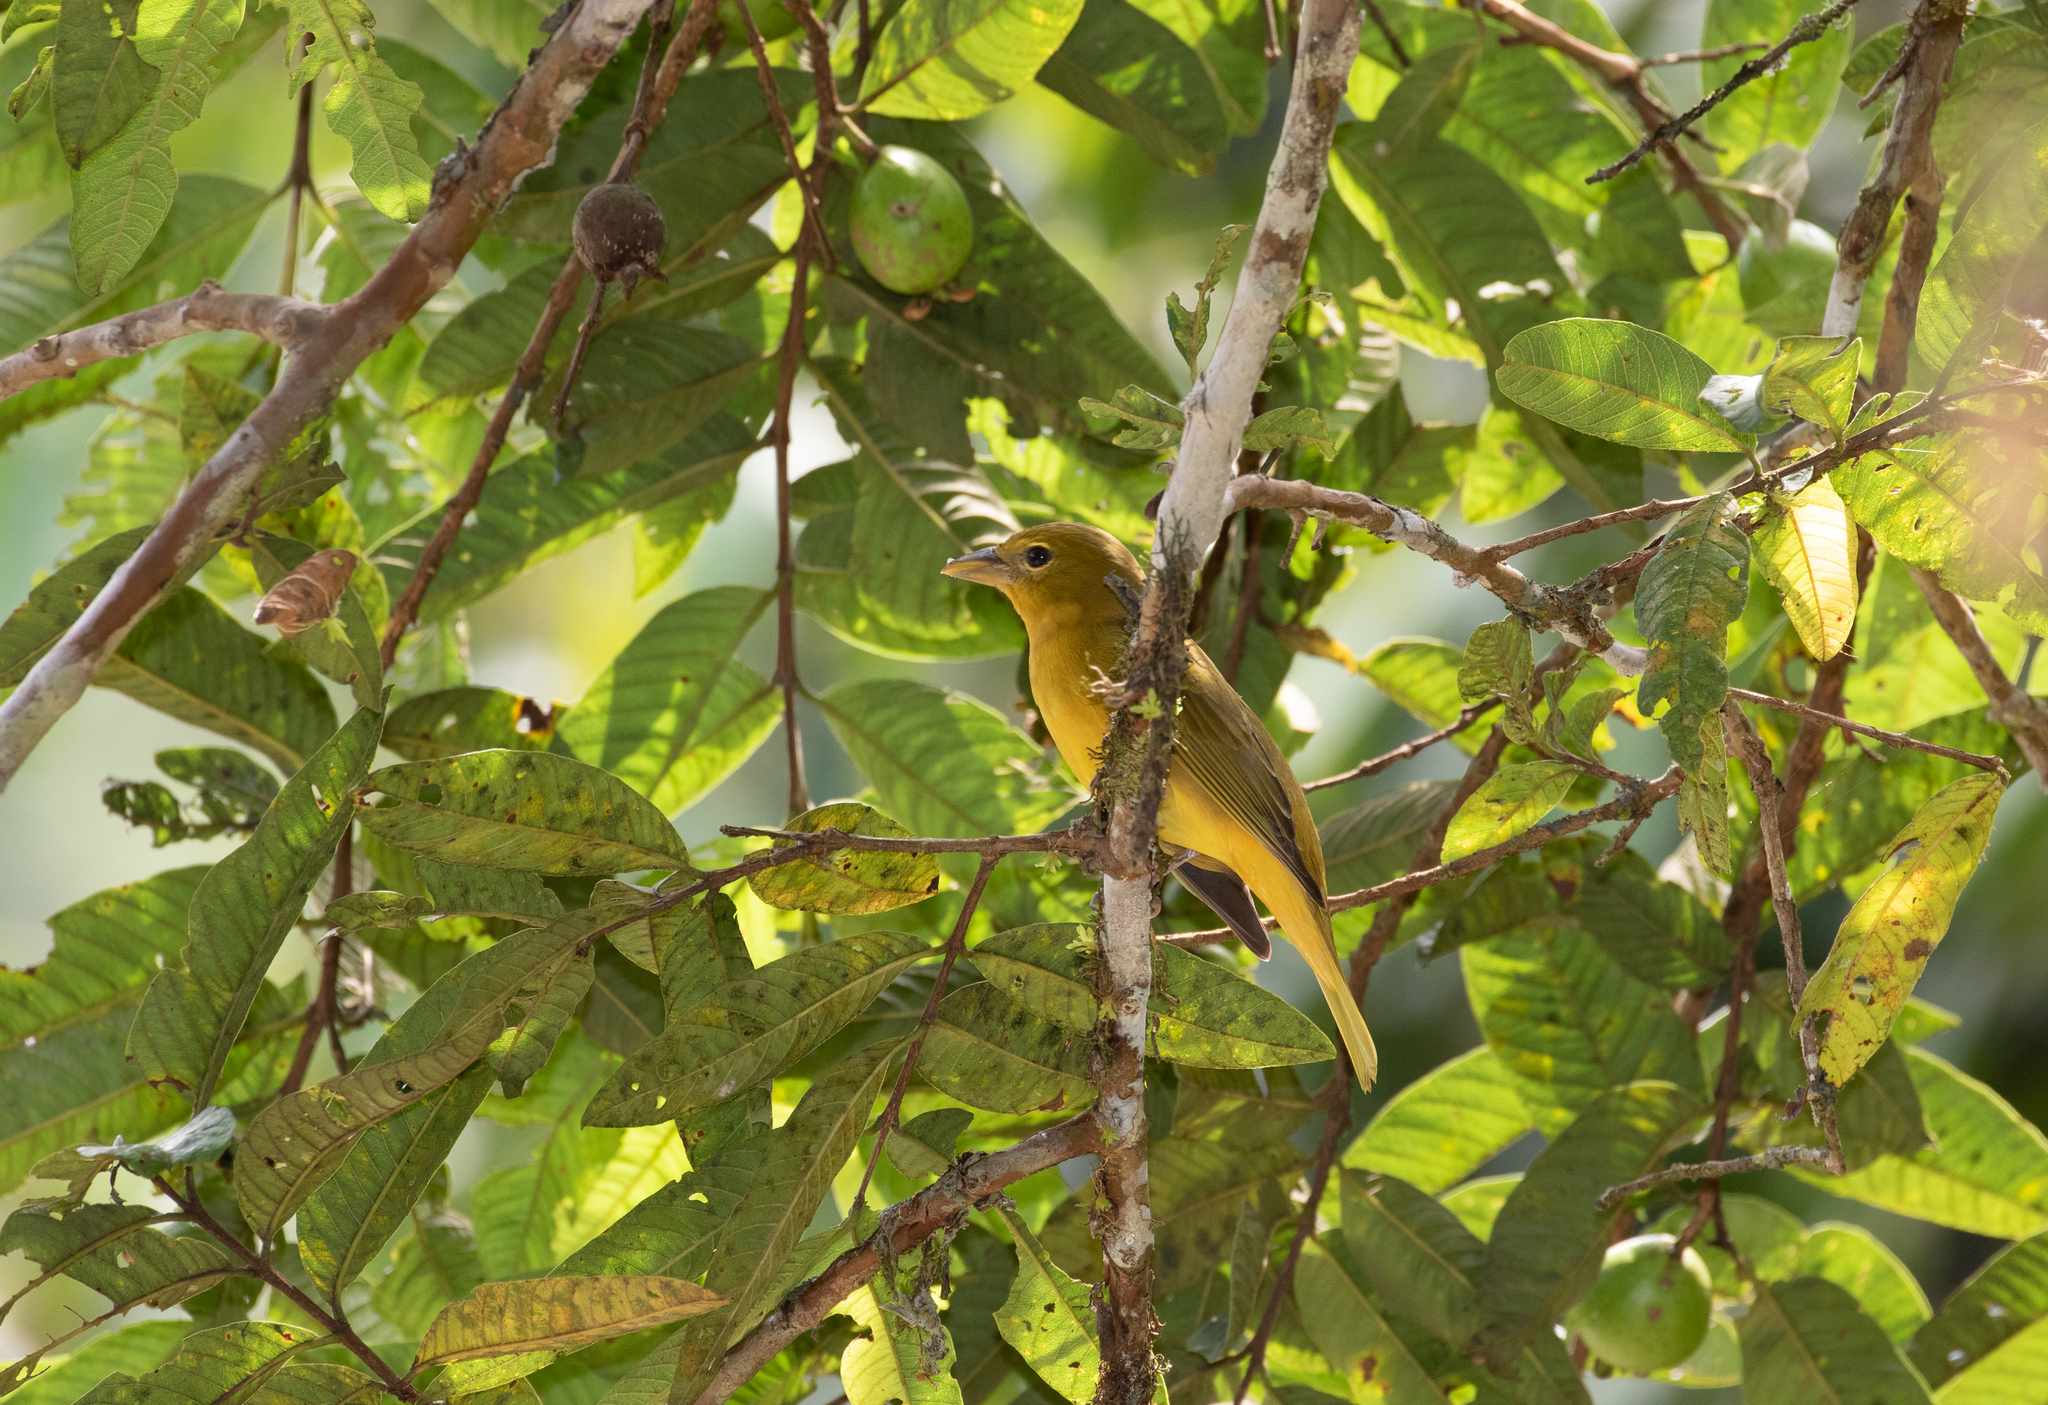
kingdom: Animalia
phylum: Chordata
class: Aves
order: Passeriformes
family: Cardinalidae
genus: Piranga
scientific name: Piranga rubra
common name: Summer tanager
